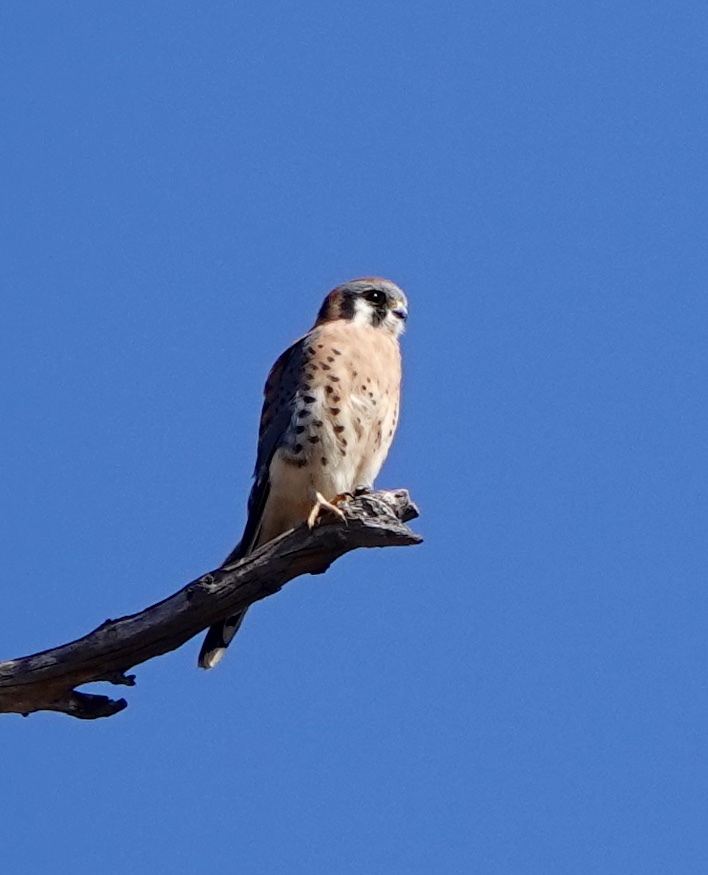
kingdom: Animalia
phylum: Chordata
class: Aves
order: Falconiformes
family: Falconidae
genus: Falco
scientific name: Falco sparverius
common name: American kestrel
